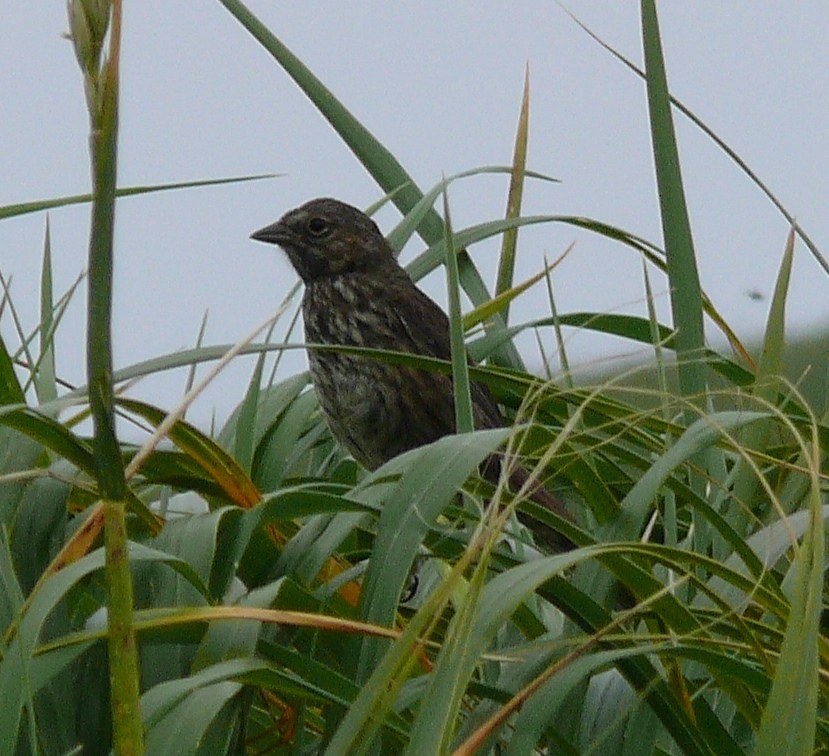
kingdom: Animalia
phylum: Chordata
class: Aves
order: Passeriformes
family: Passerellidae
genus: Melospiza
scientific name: Melospiza melodia
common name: Song sparrow
